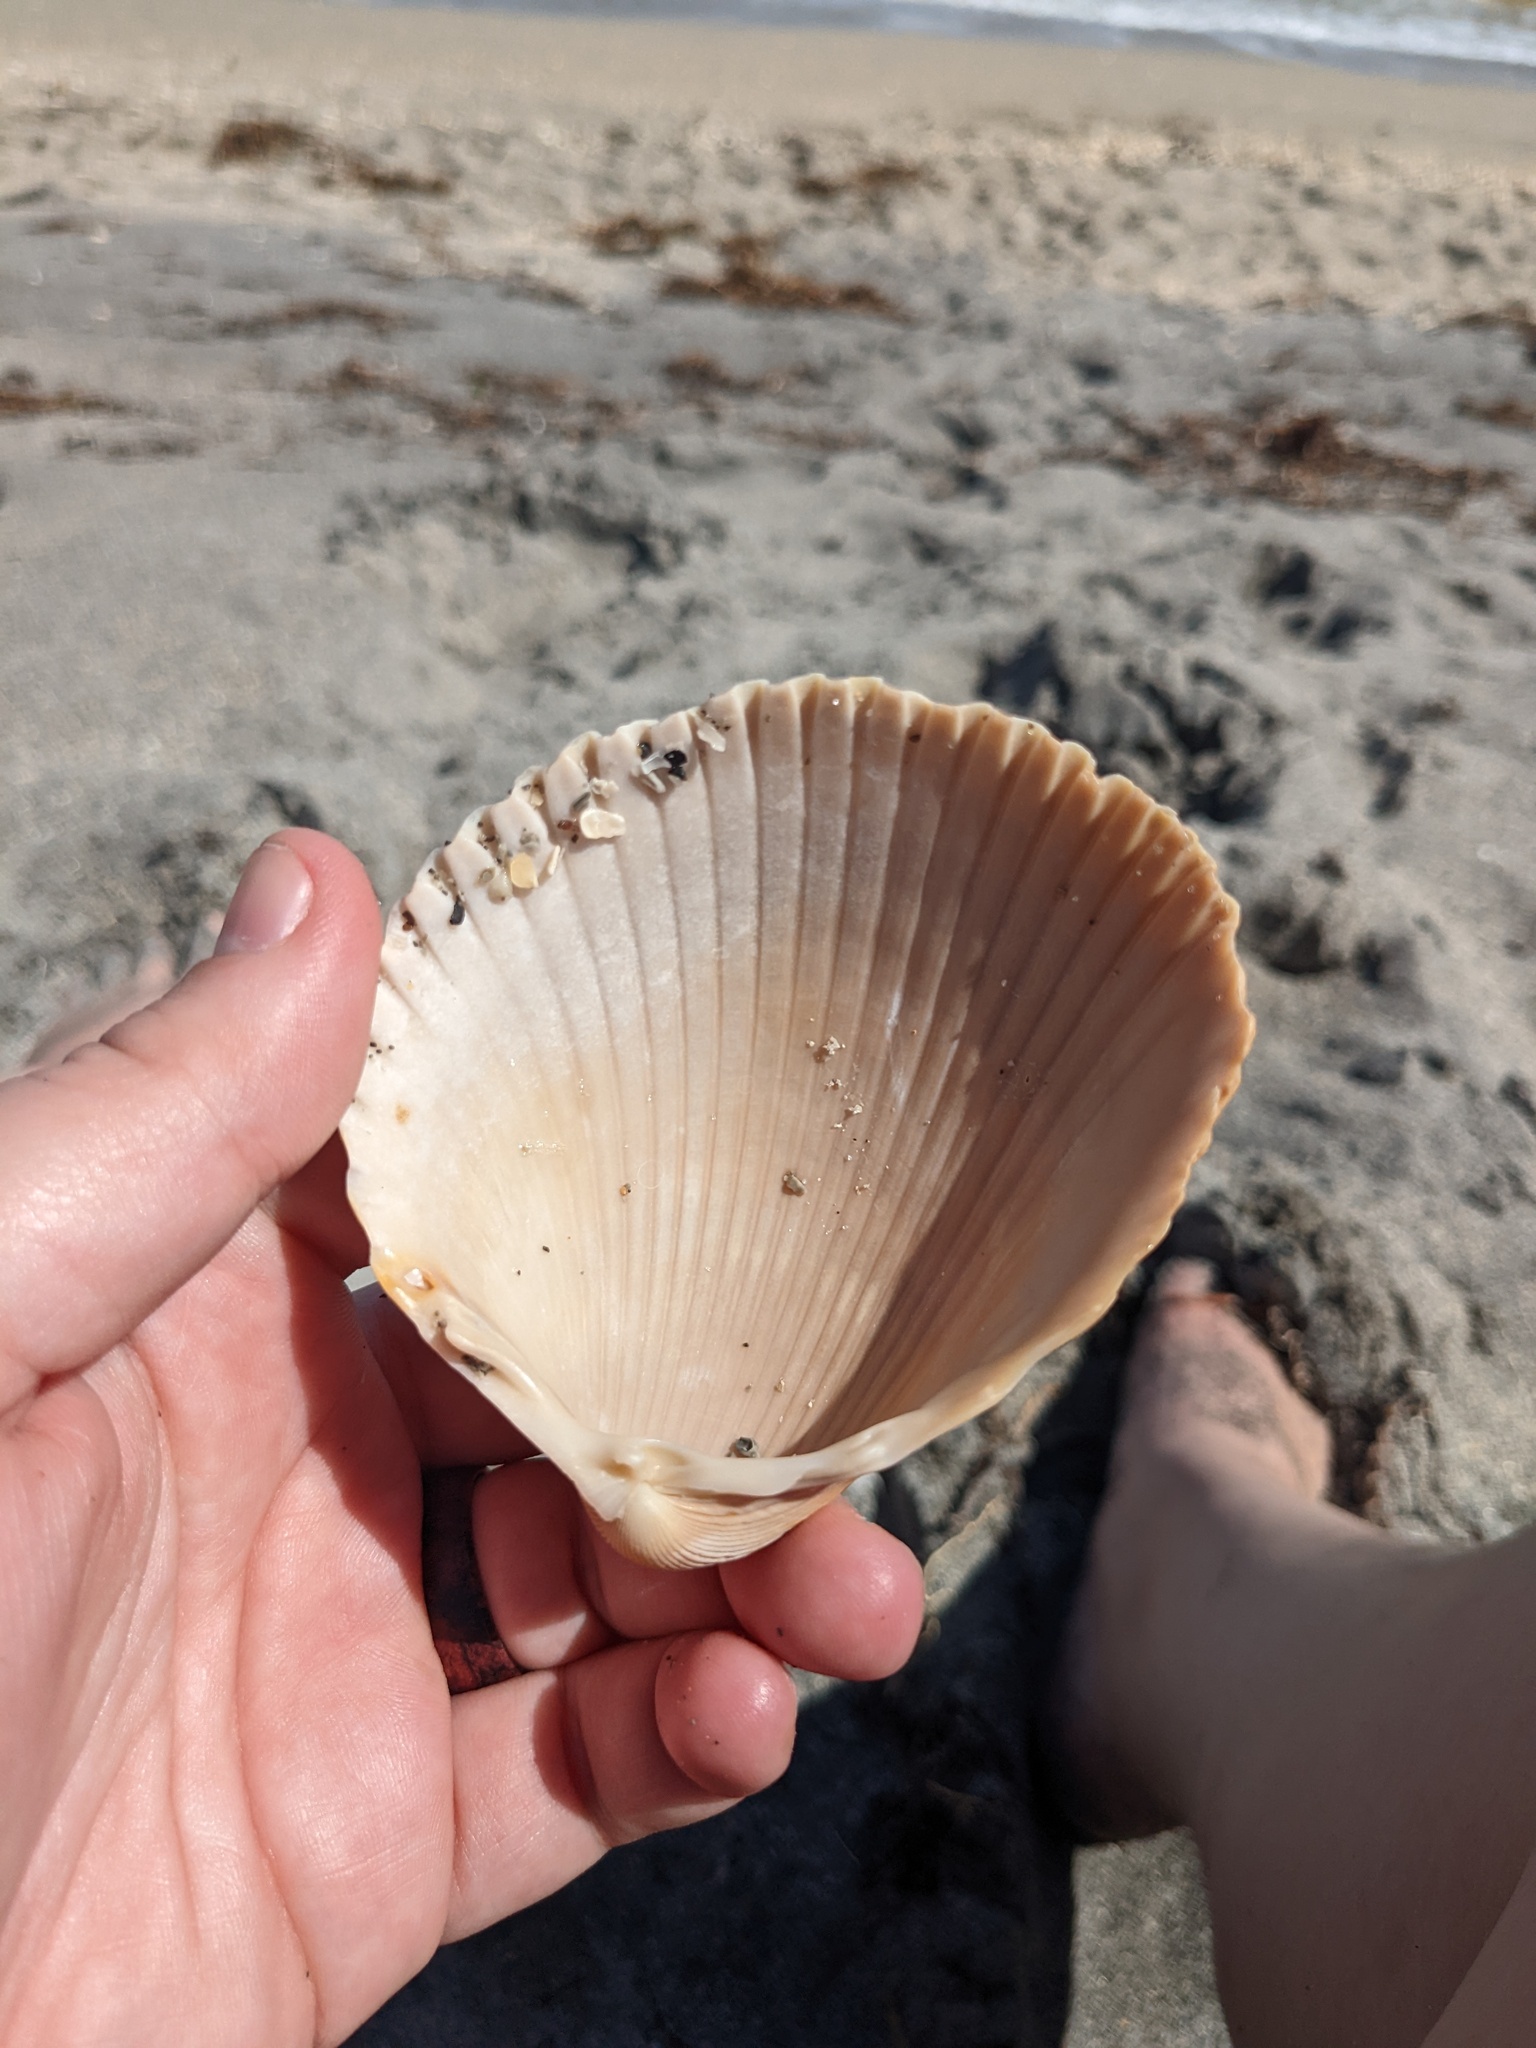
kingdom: Animalia
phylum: Mollusca
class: Bivalvia
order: Cardiida
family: Cardiidae
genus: Dinocardium
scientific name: Dinocardium robustum
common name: Atlantic giant cockle
